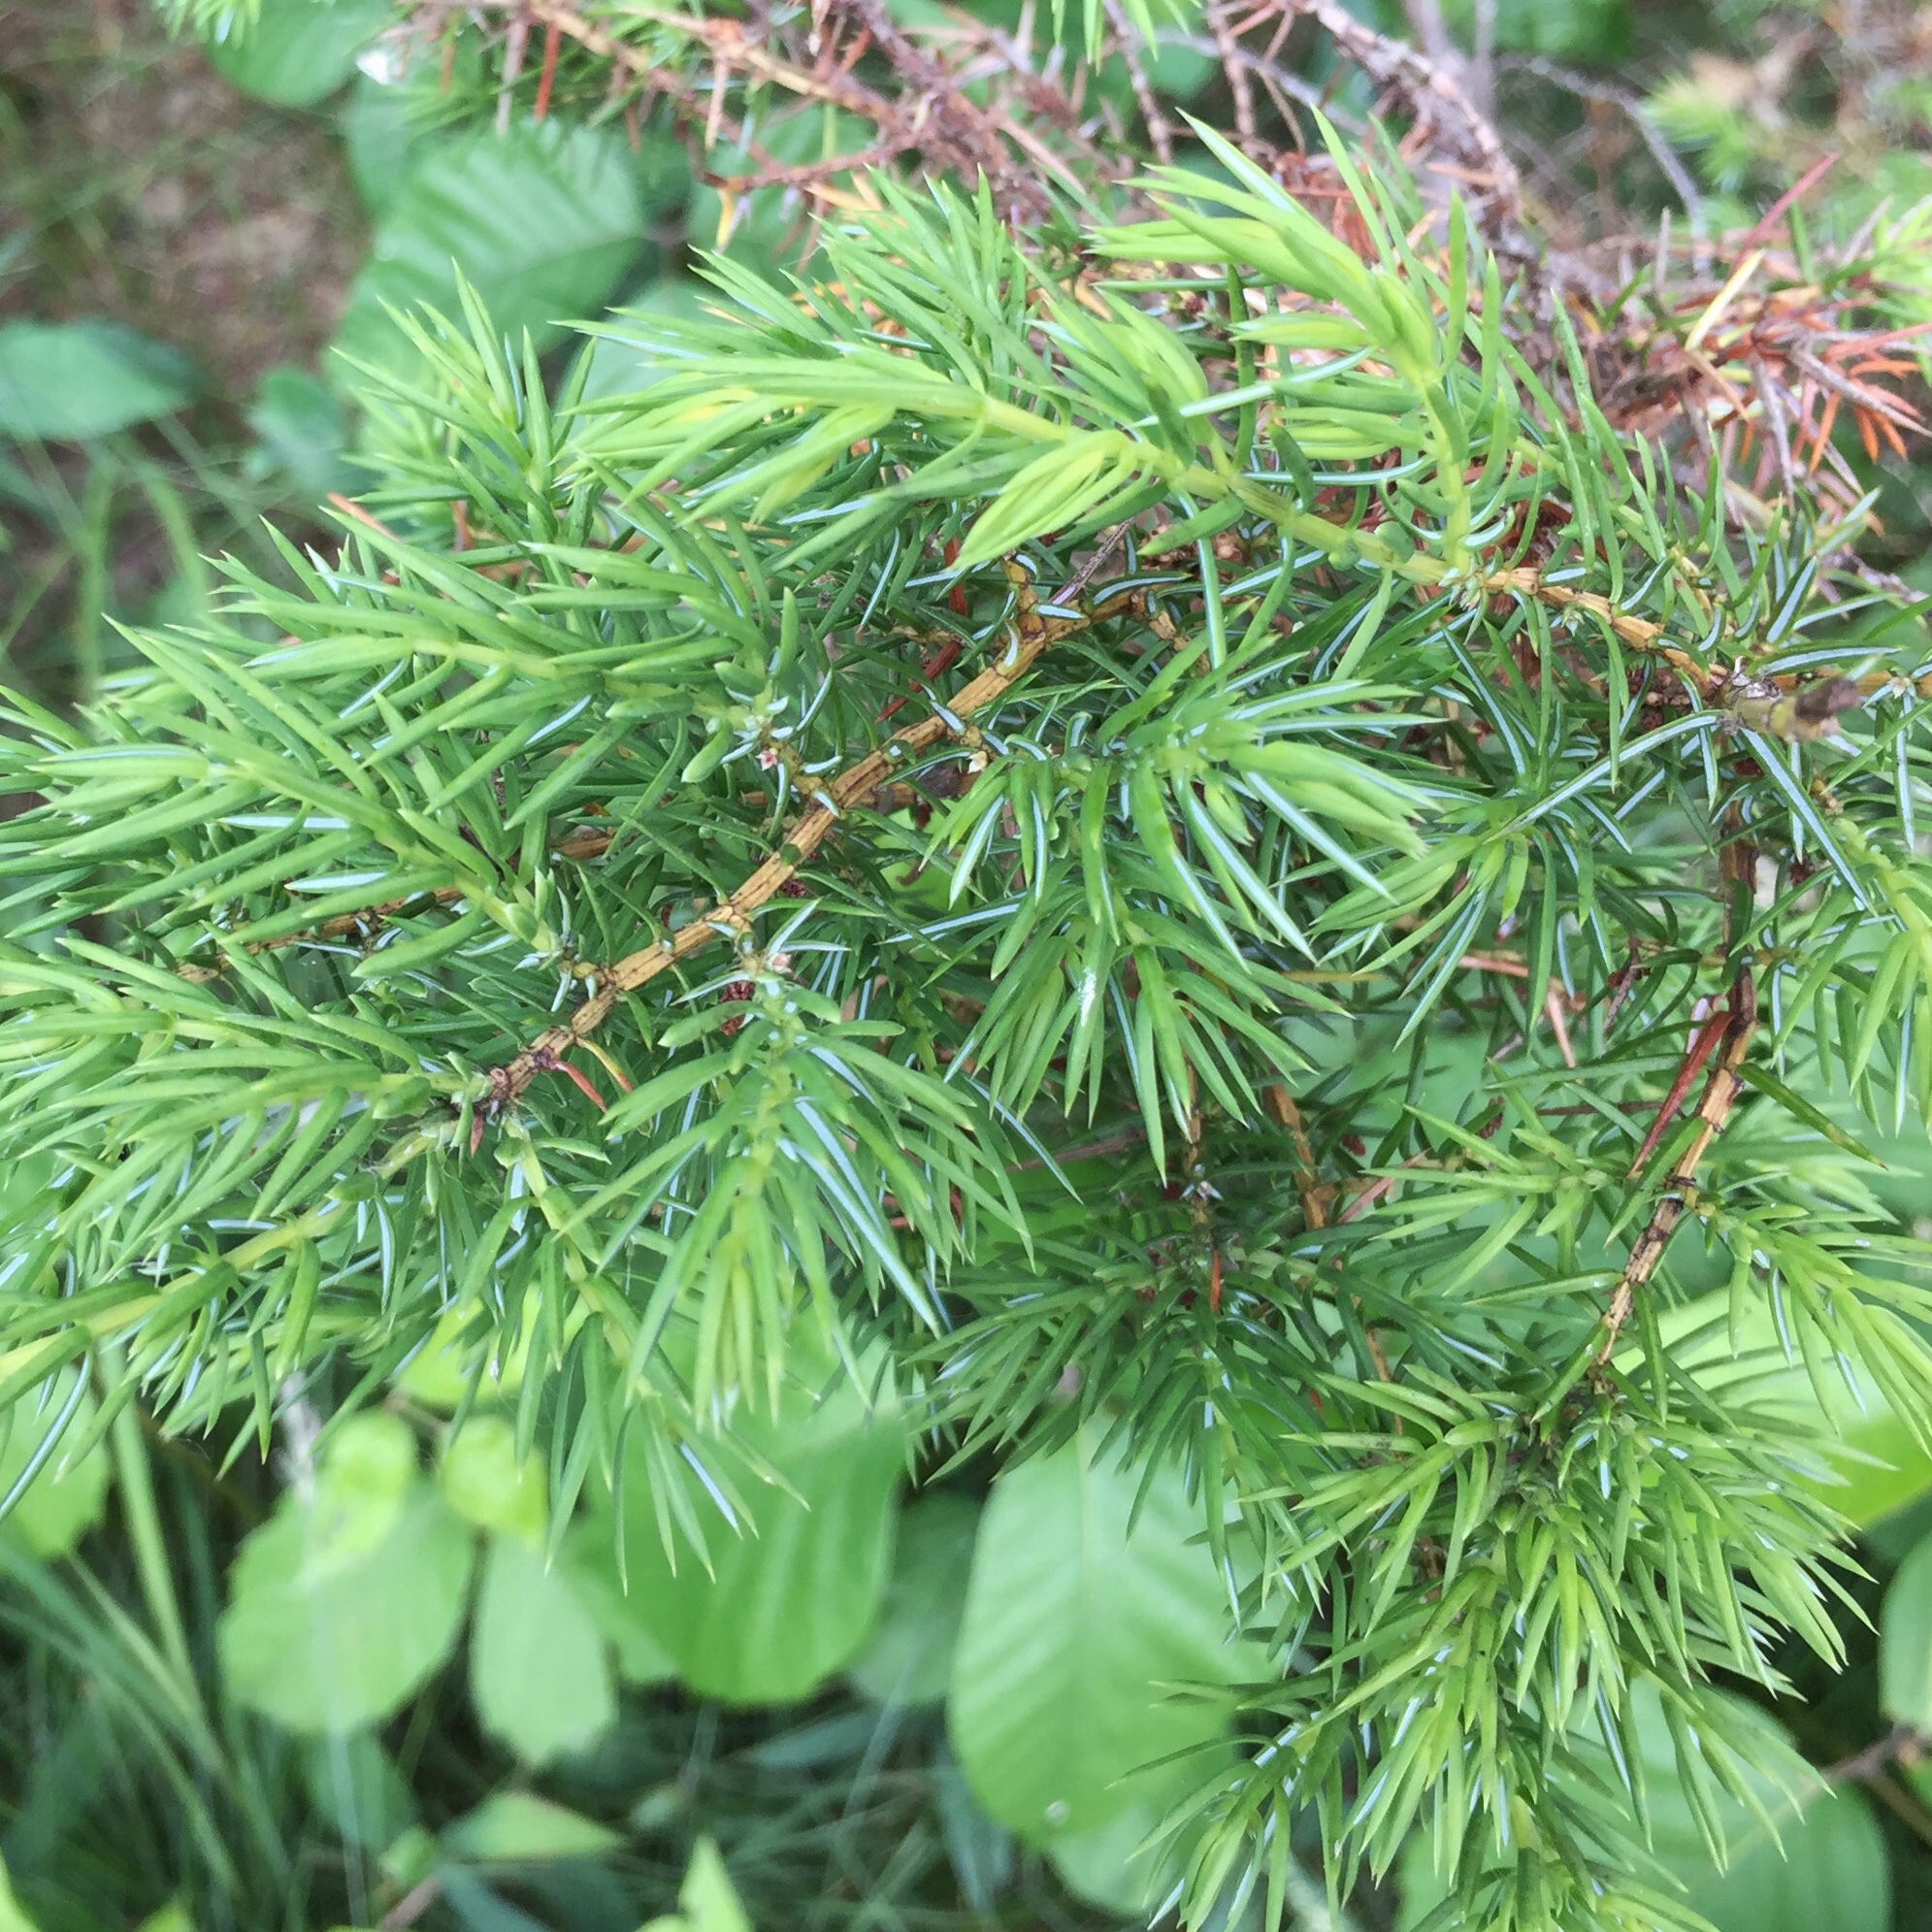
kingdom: Plantae
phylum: Tracheophyta
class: Pinopsida
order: Pinales
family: Cupressaceae
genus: Juniperus
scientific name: Juniperus communis
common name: Common juniper
